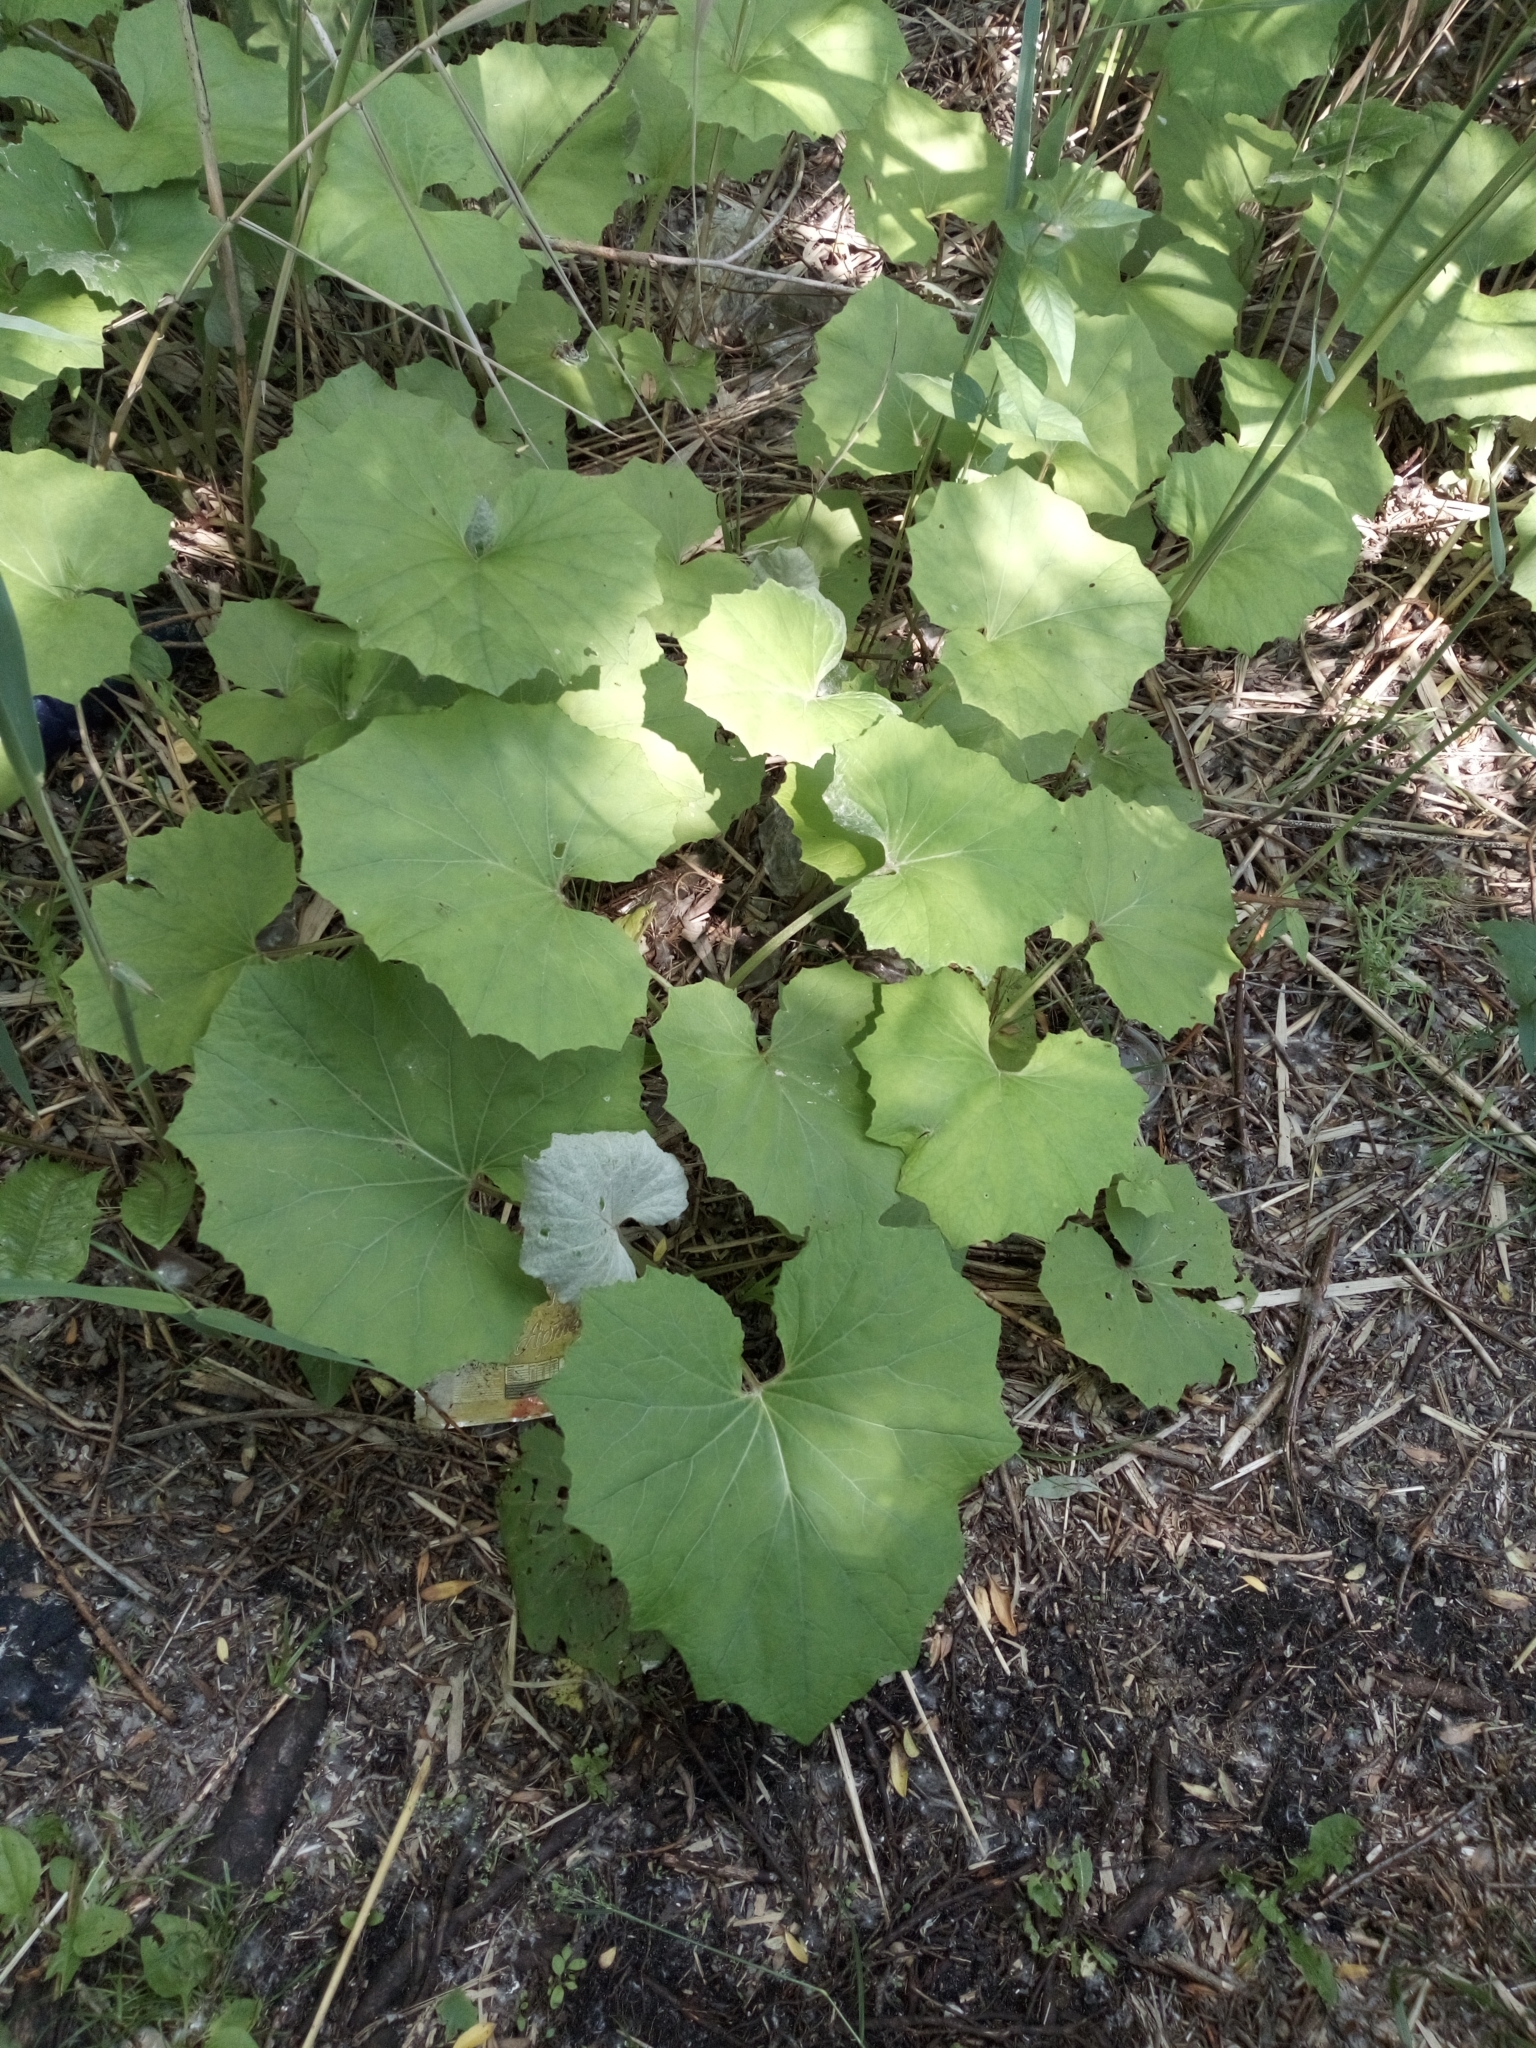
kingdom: Plantae
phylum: Tracheophyta
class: Magnoliopsida
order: Asterales
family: Asteraceae
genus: Tussilago
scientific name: Tussilago farfara
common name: Coltsfoot
